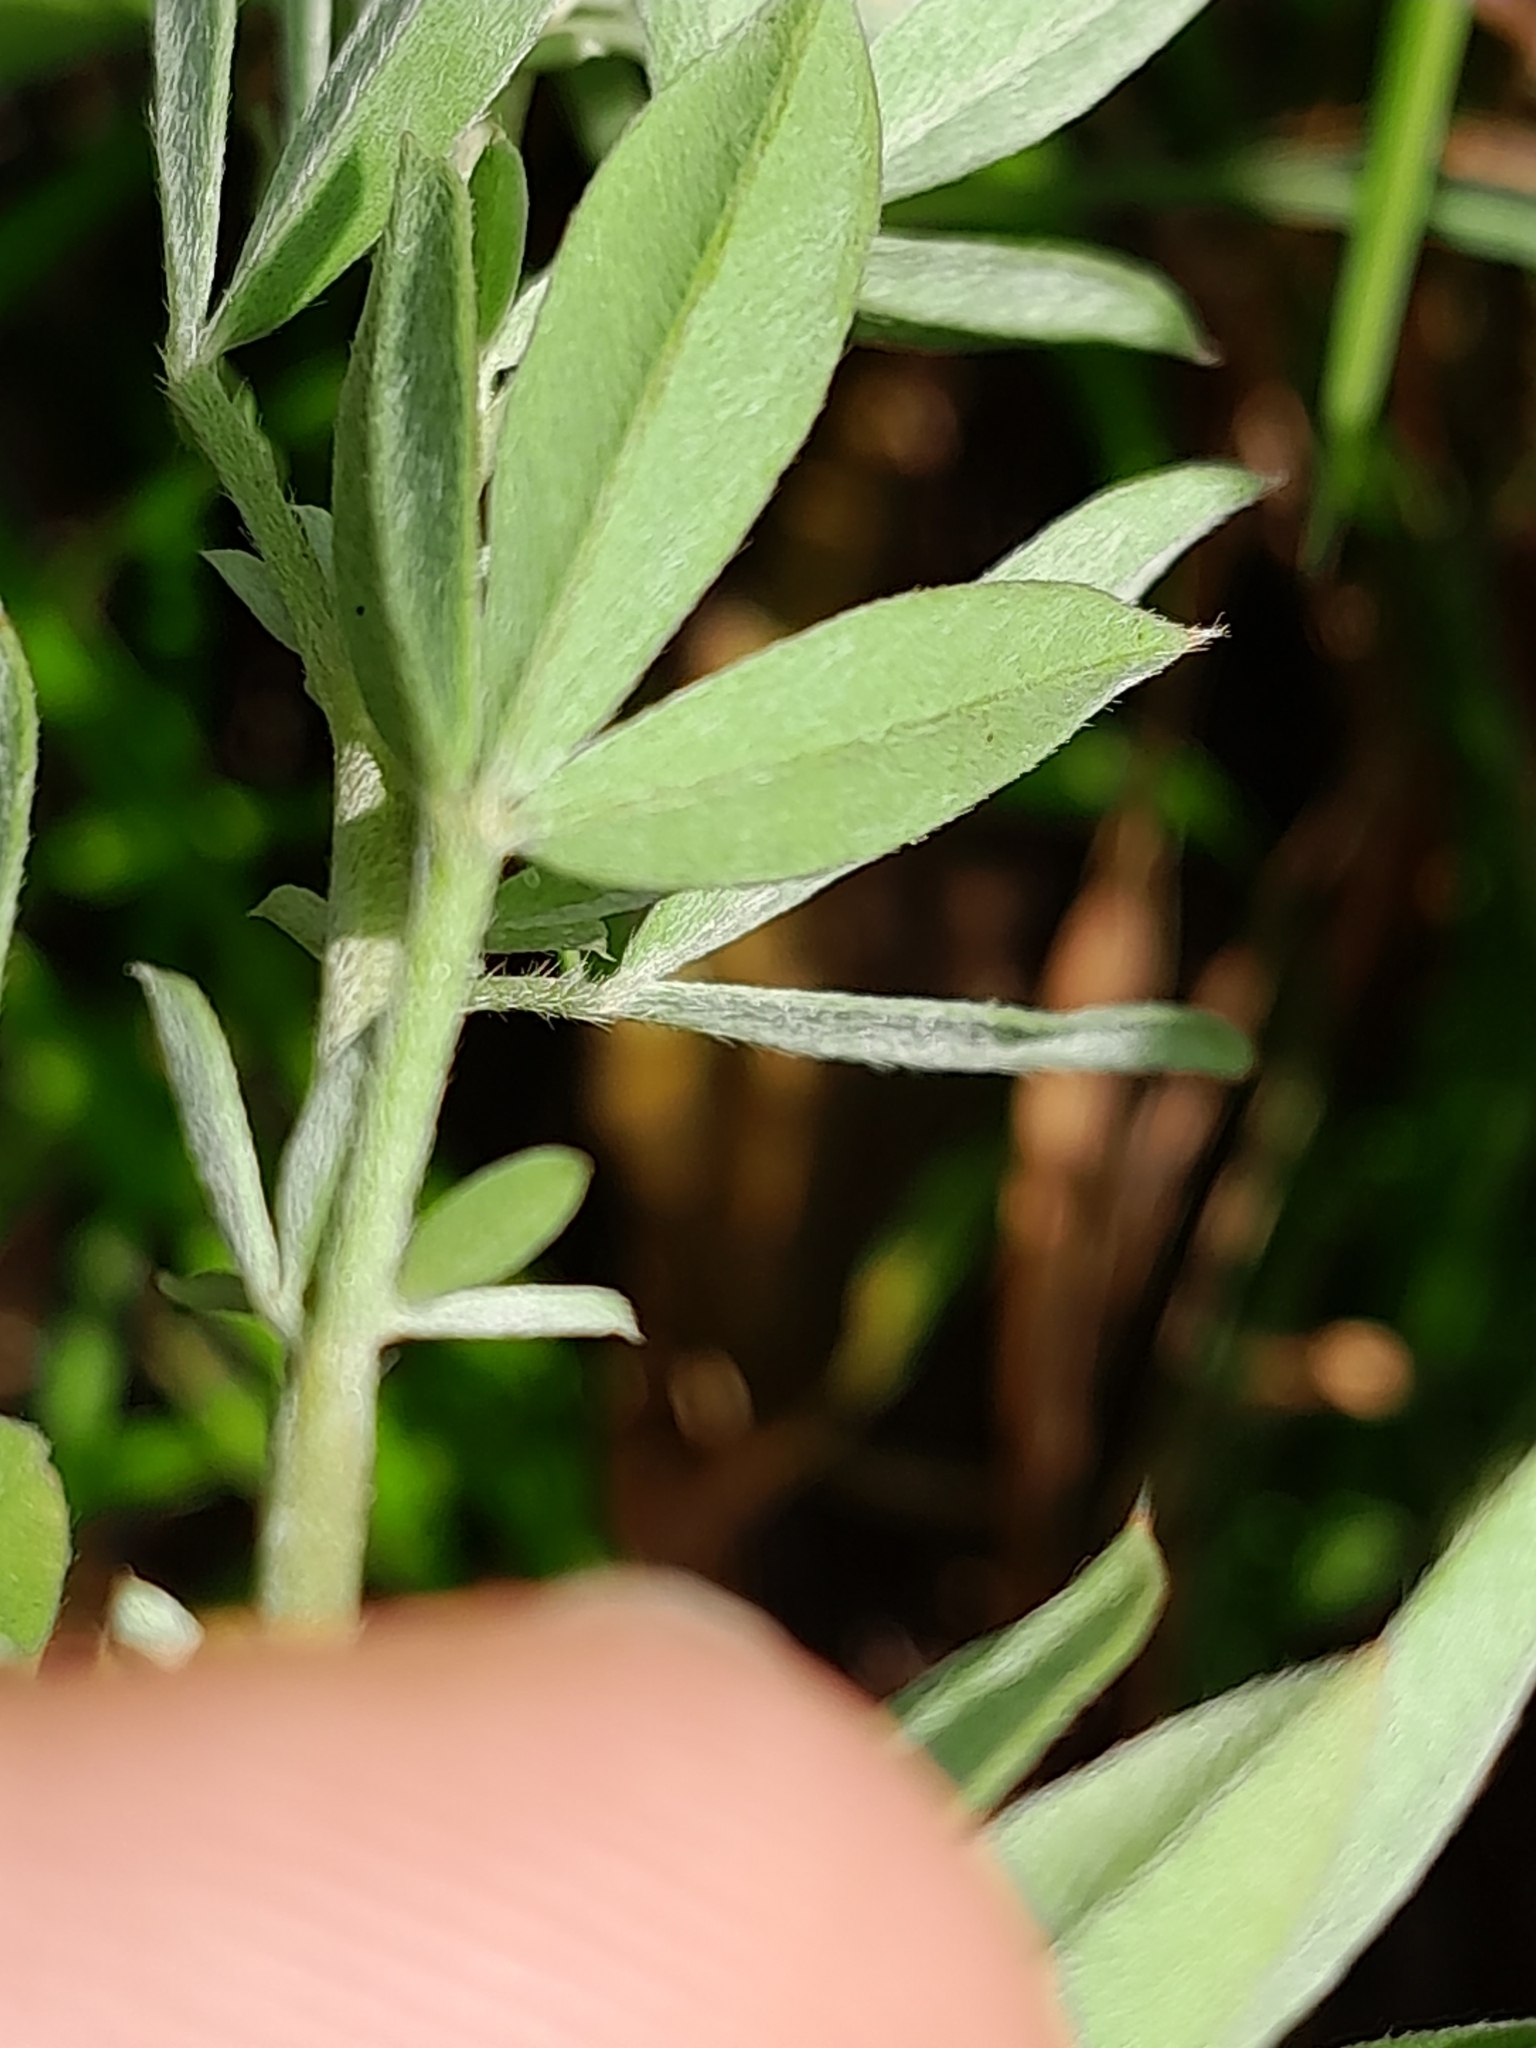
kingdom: Plantae
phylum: Tracheophyta
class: Magnoliopsida
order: Fabales
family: Fabaceae
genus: Chamaecytisus
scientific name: Chamaecytisus albus
